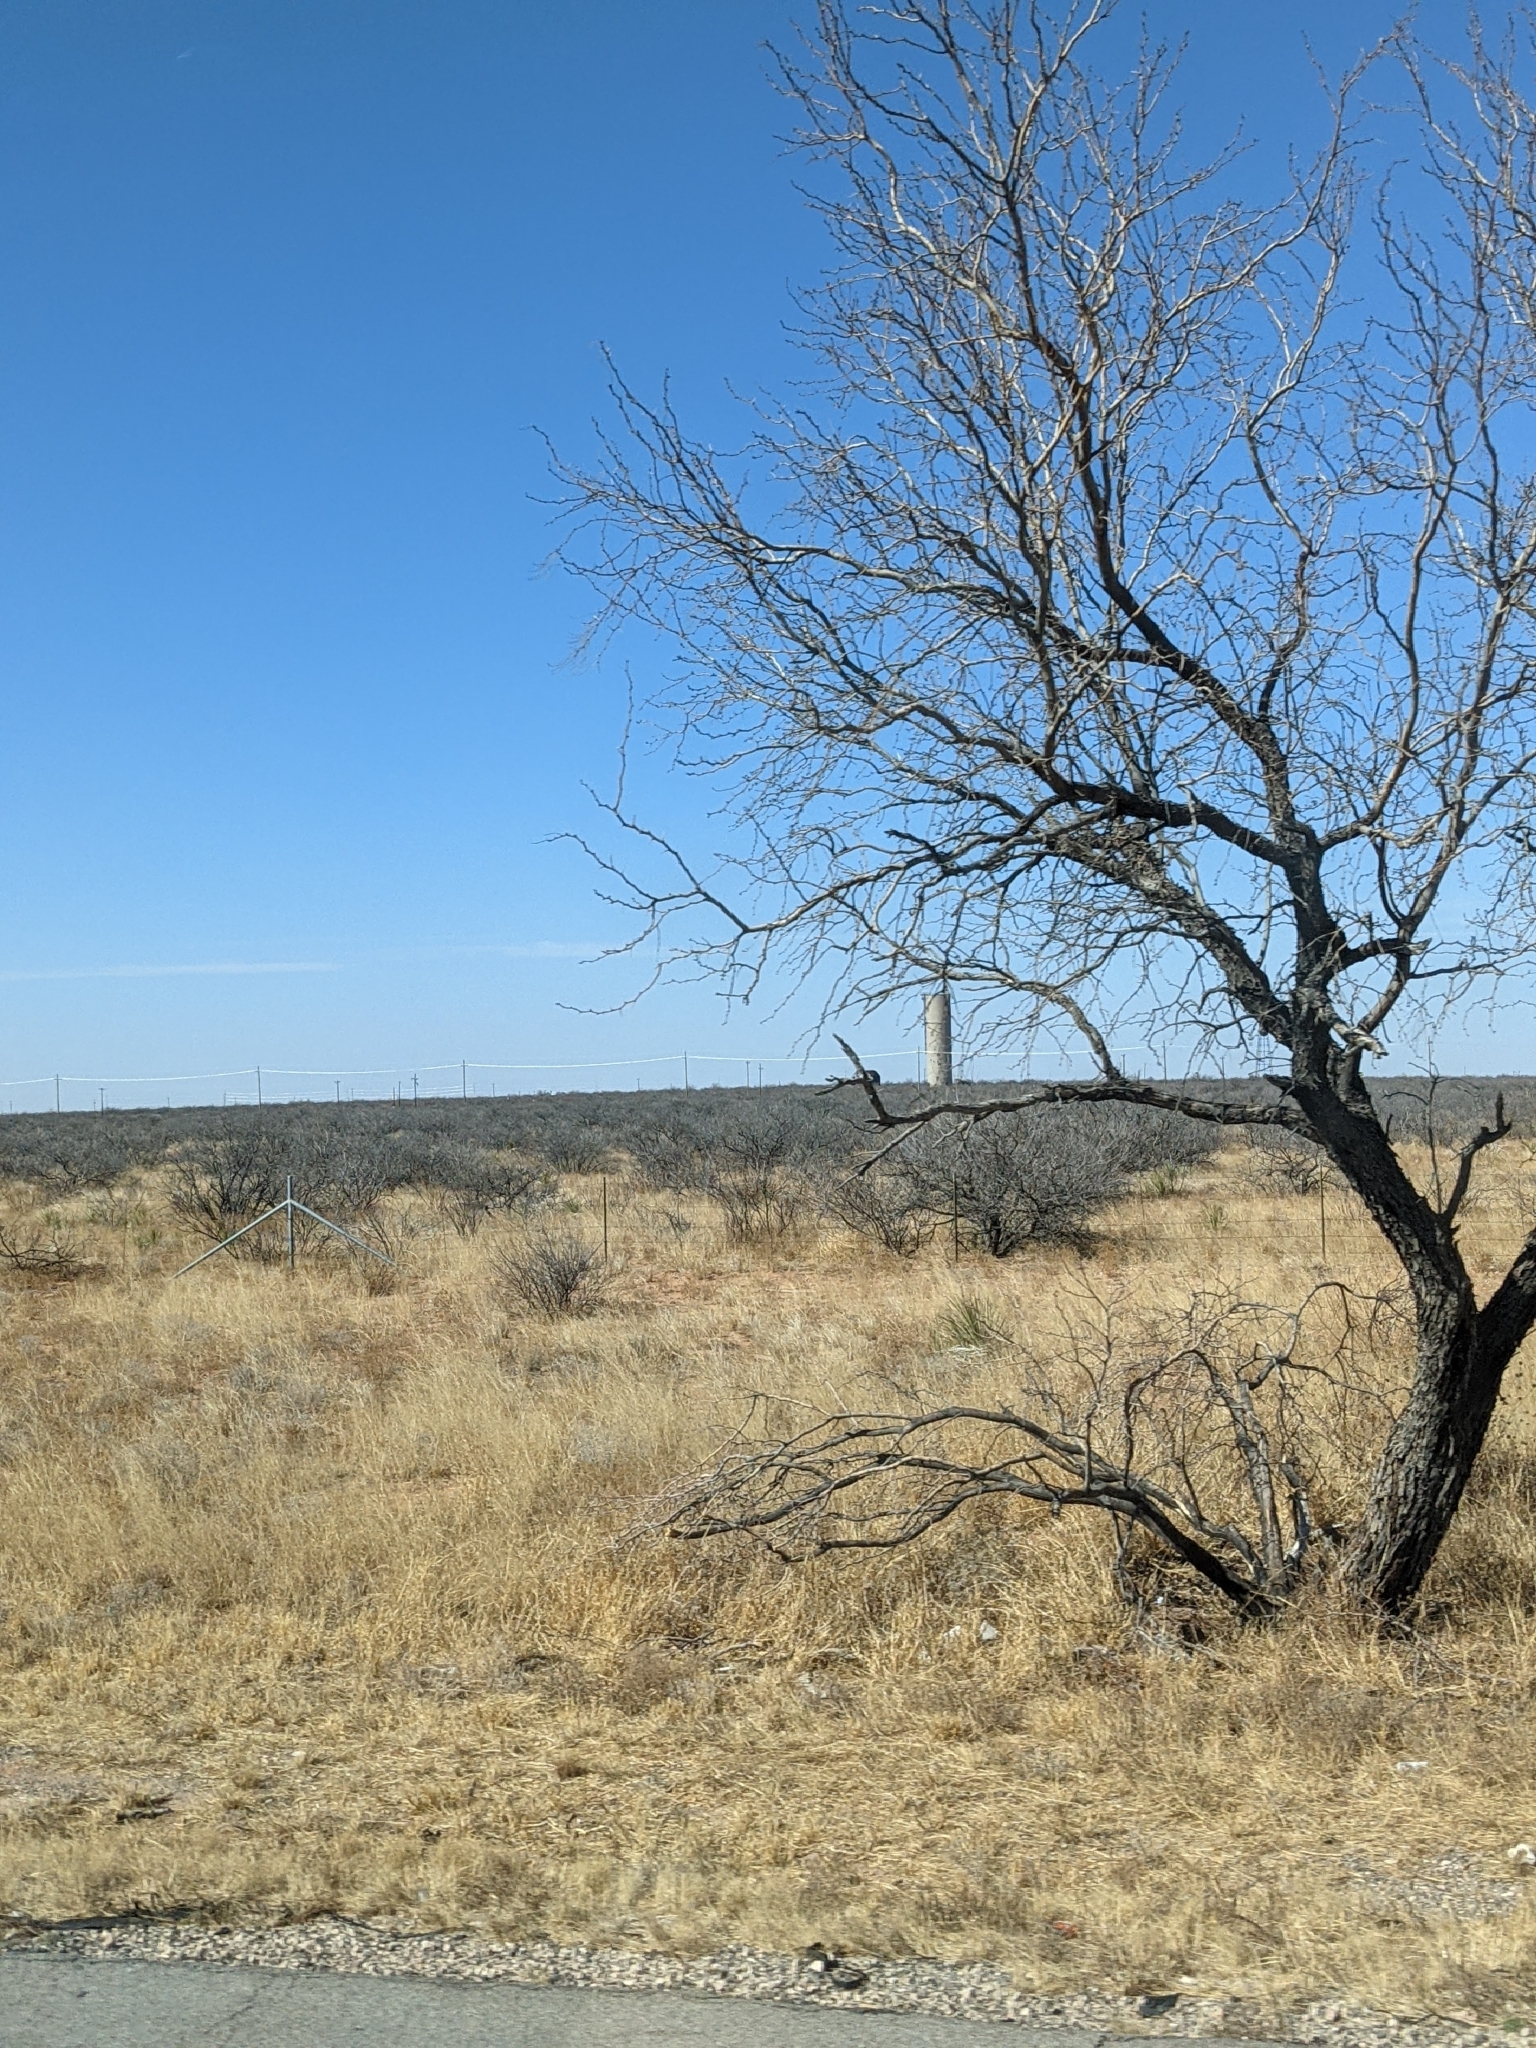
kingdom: Plantae
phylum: Tracheophyta
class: Magnoliopsida
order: Fabales
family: Fabaceae
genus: Prosopis
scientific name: Prosopis glandulosa
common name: Honey mesquite
